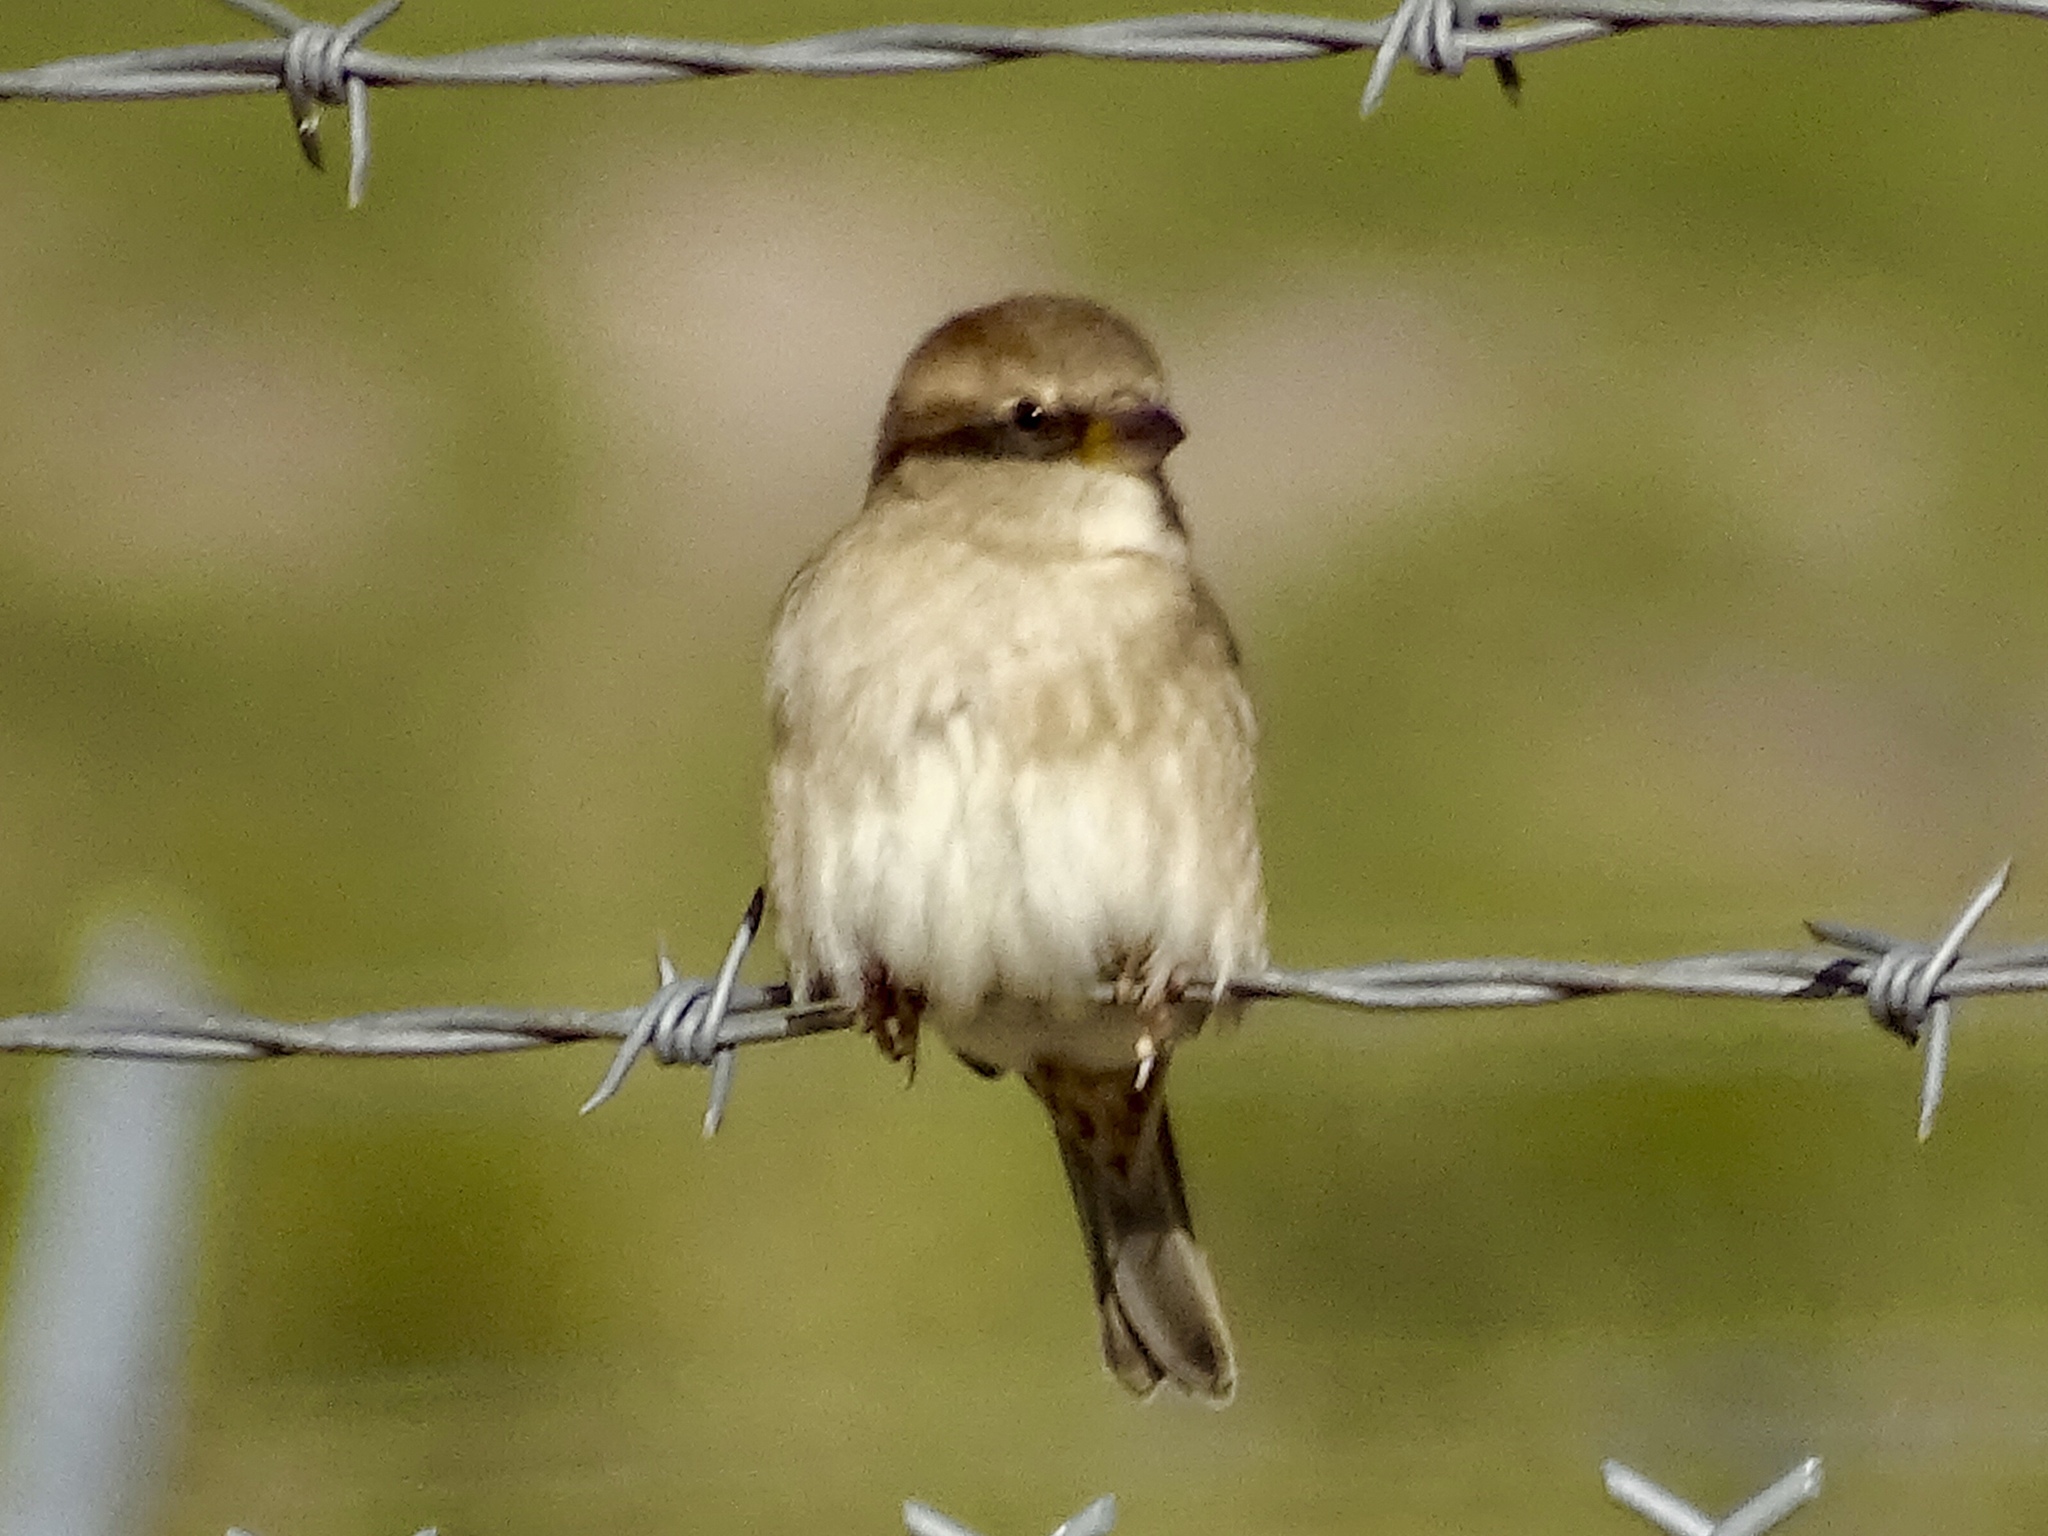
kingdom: Animalia
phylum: Chordata
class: Aves
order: Passeriformes
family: Passeridae
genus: Passer
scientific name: Passer domesticus
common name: House sparrow
